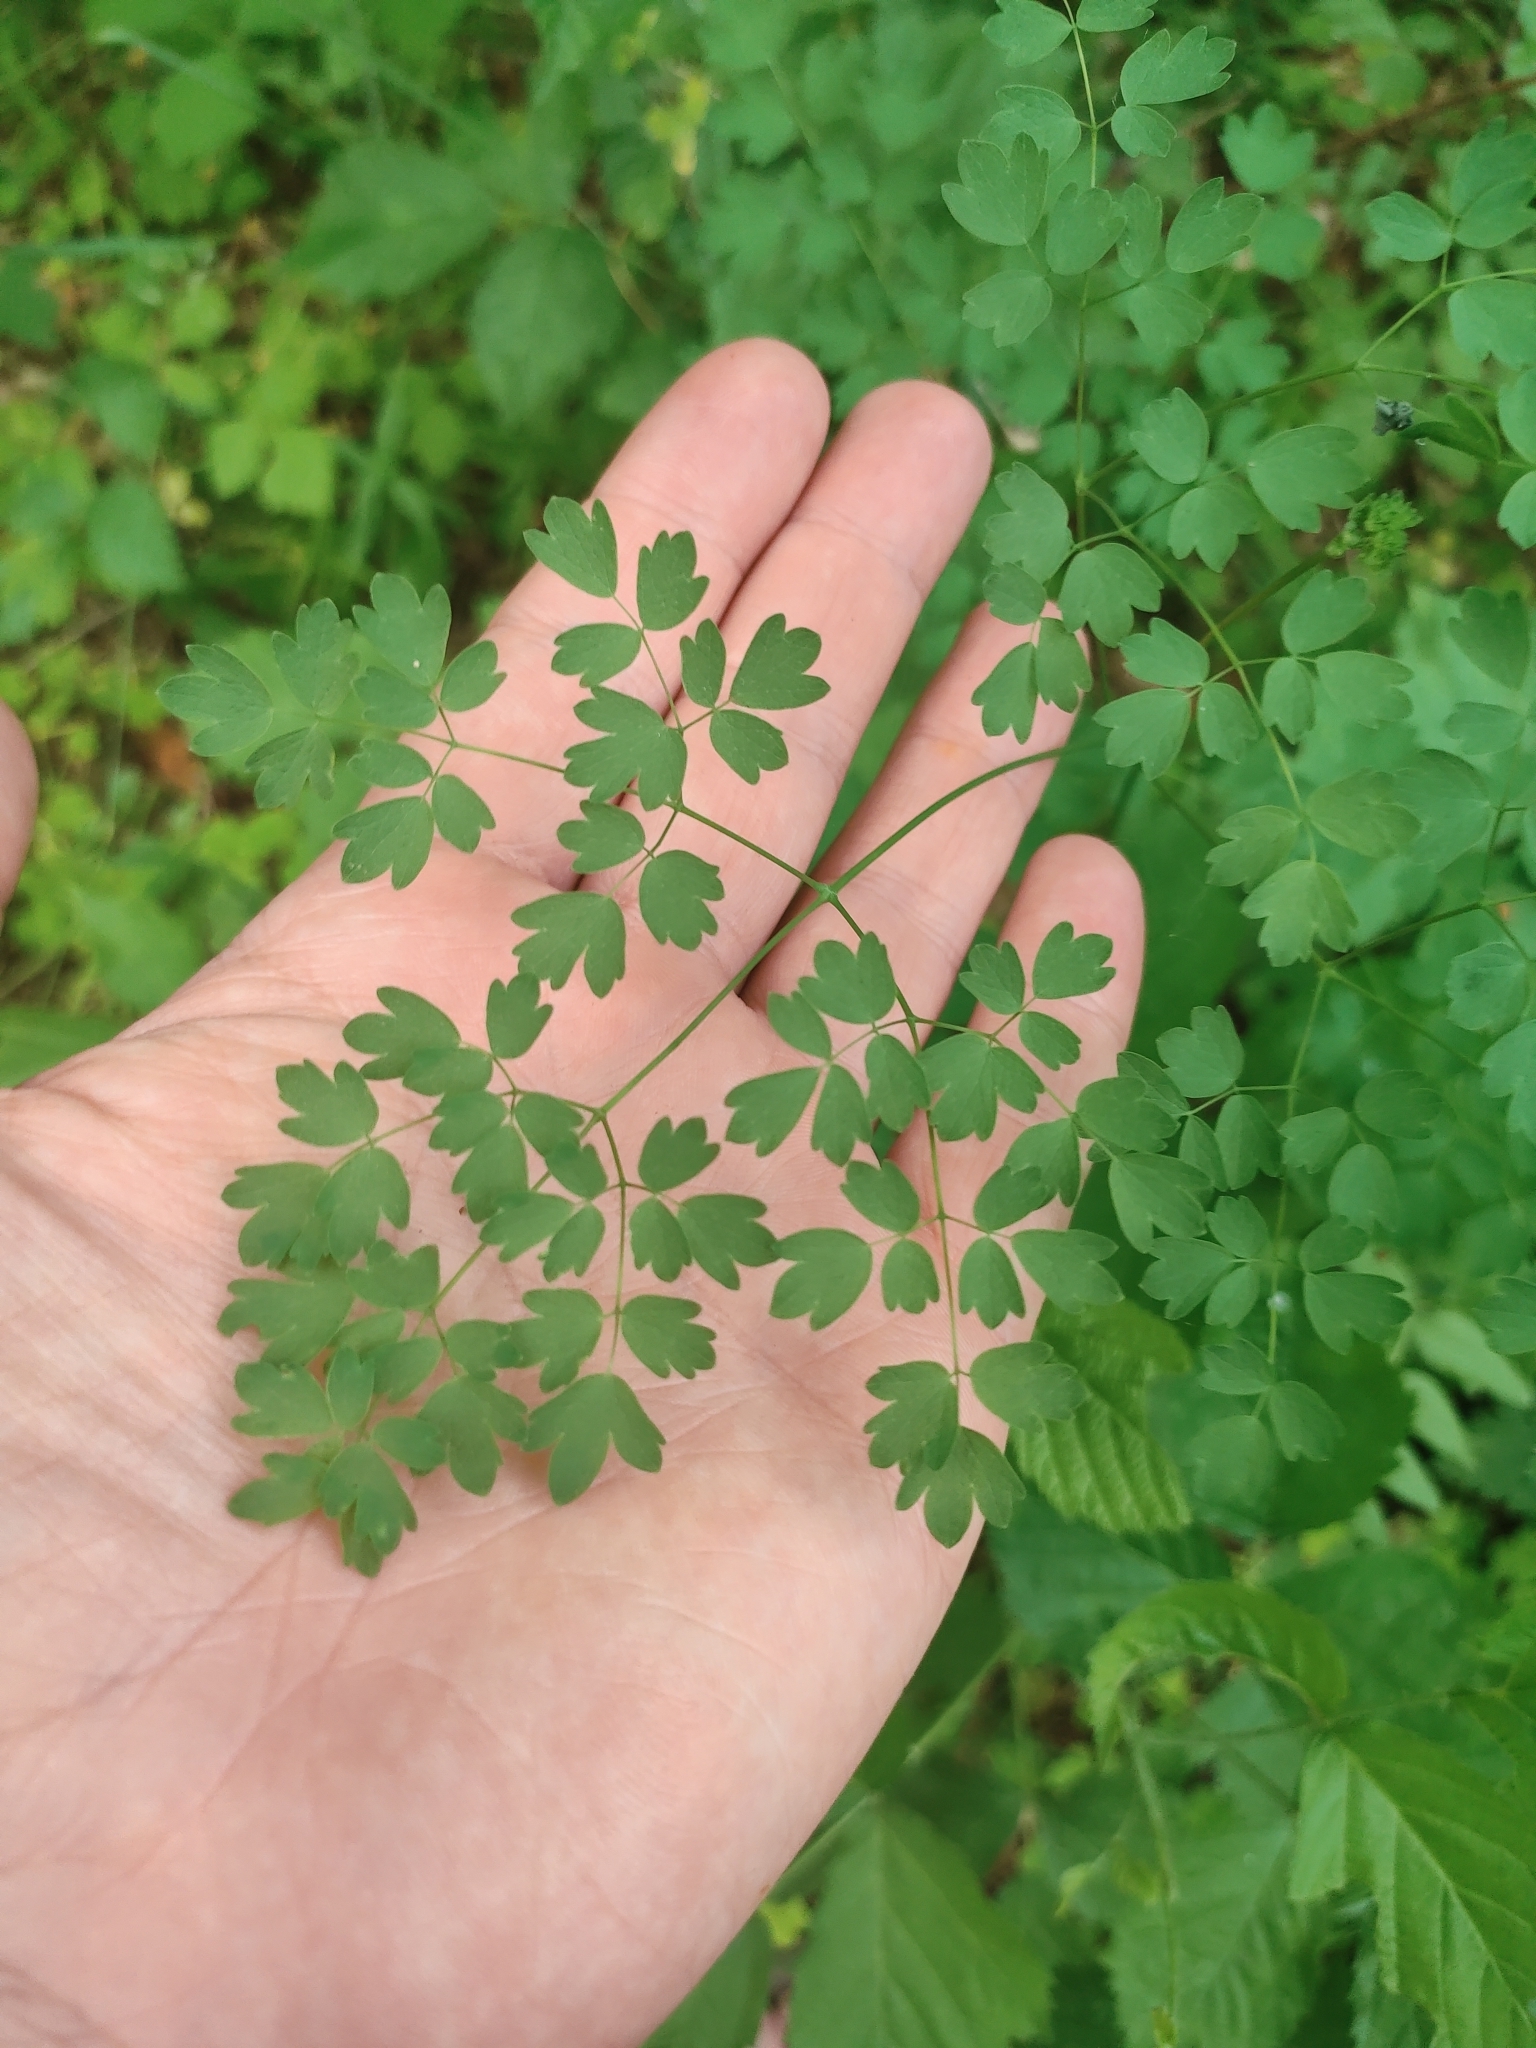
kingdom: Plantae
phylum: Tracheophyta
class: Magnoliopsida
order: Ranunculales
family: Ranunculaceae
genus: Thalictrum
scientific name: Thalictrum minus
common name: Lesser meadow-rue
